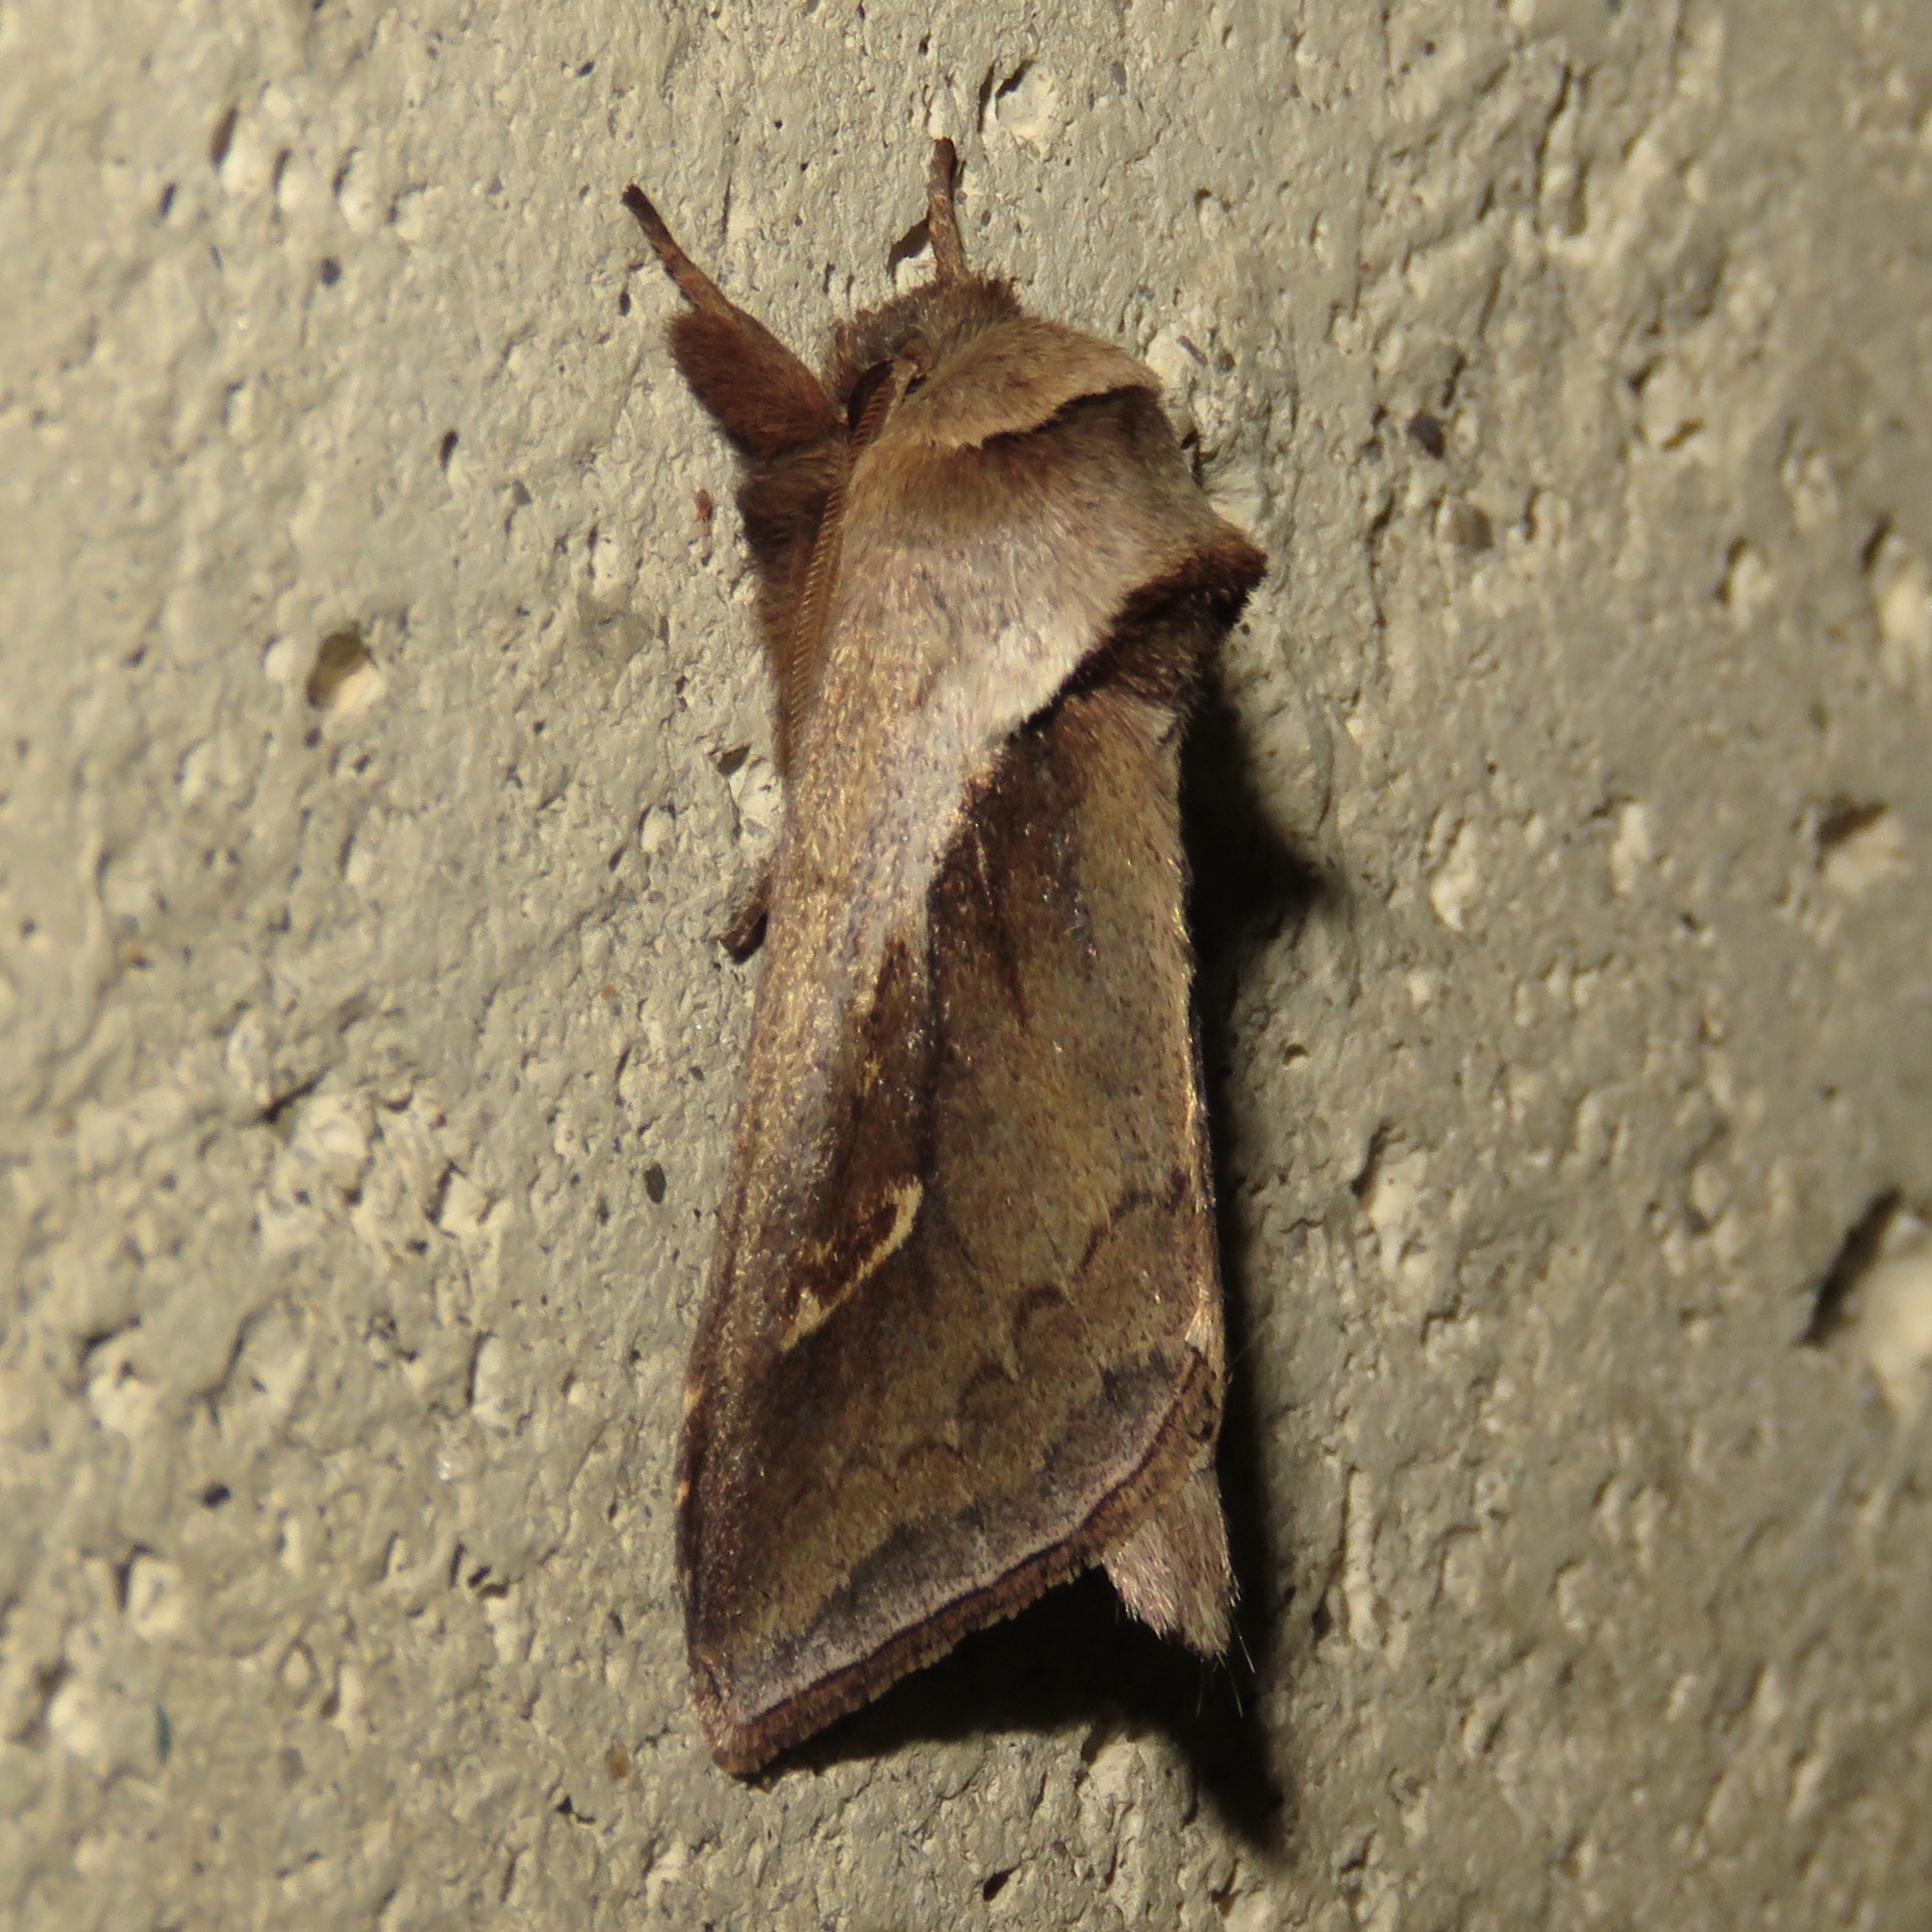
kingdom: Animalia
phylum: Arthropoda
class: Insecta
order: Lepidoptera
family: Noctuidae
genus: Bellura
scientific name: Bellura obliqua
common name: Cattail borer moth
